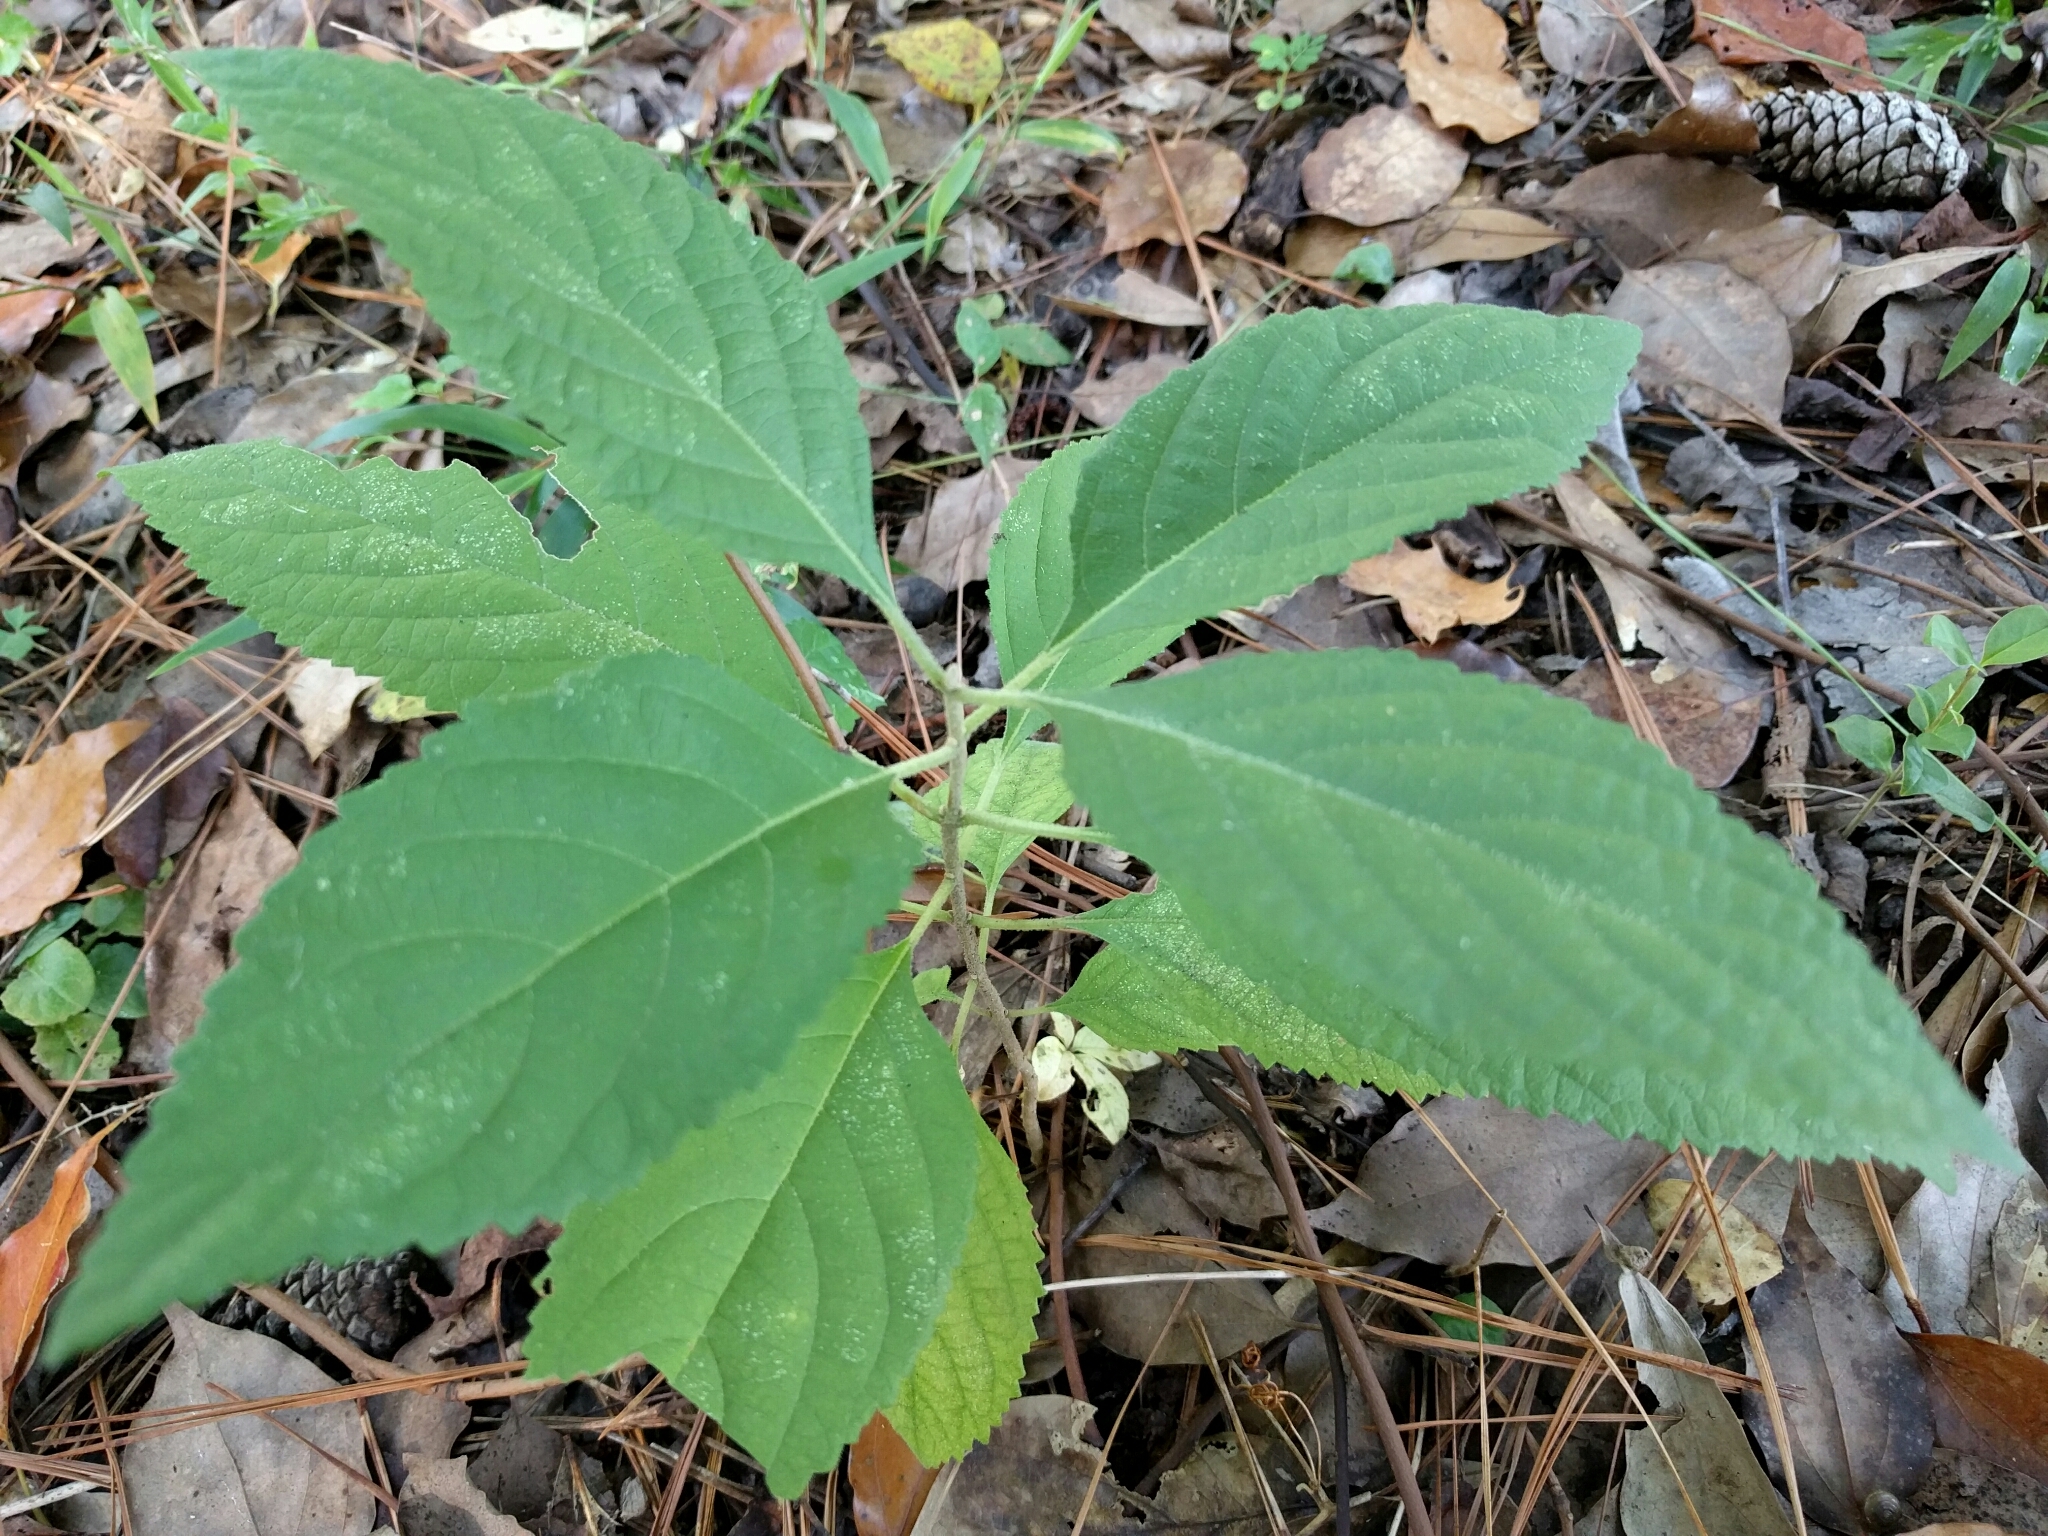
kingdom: Plantae
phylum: Tracheophyta
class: Magnoliopsida
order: Lamiales
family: Lamiaceae
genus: Callicarpa
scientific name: Callicarpa americana
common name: American beautyberry
